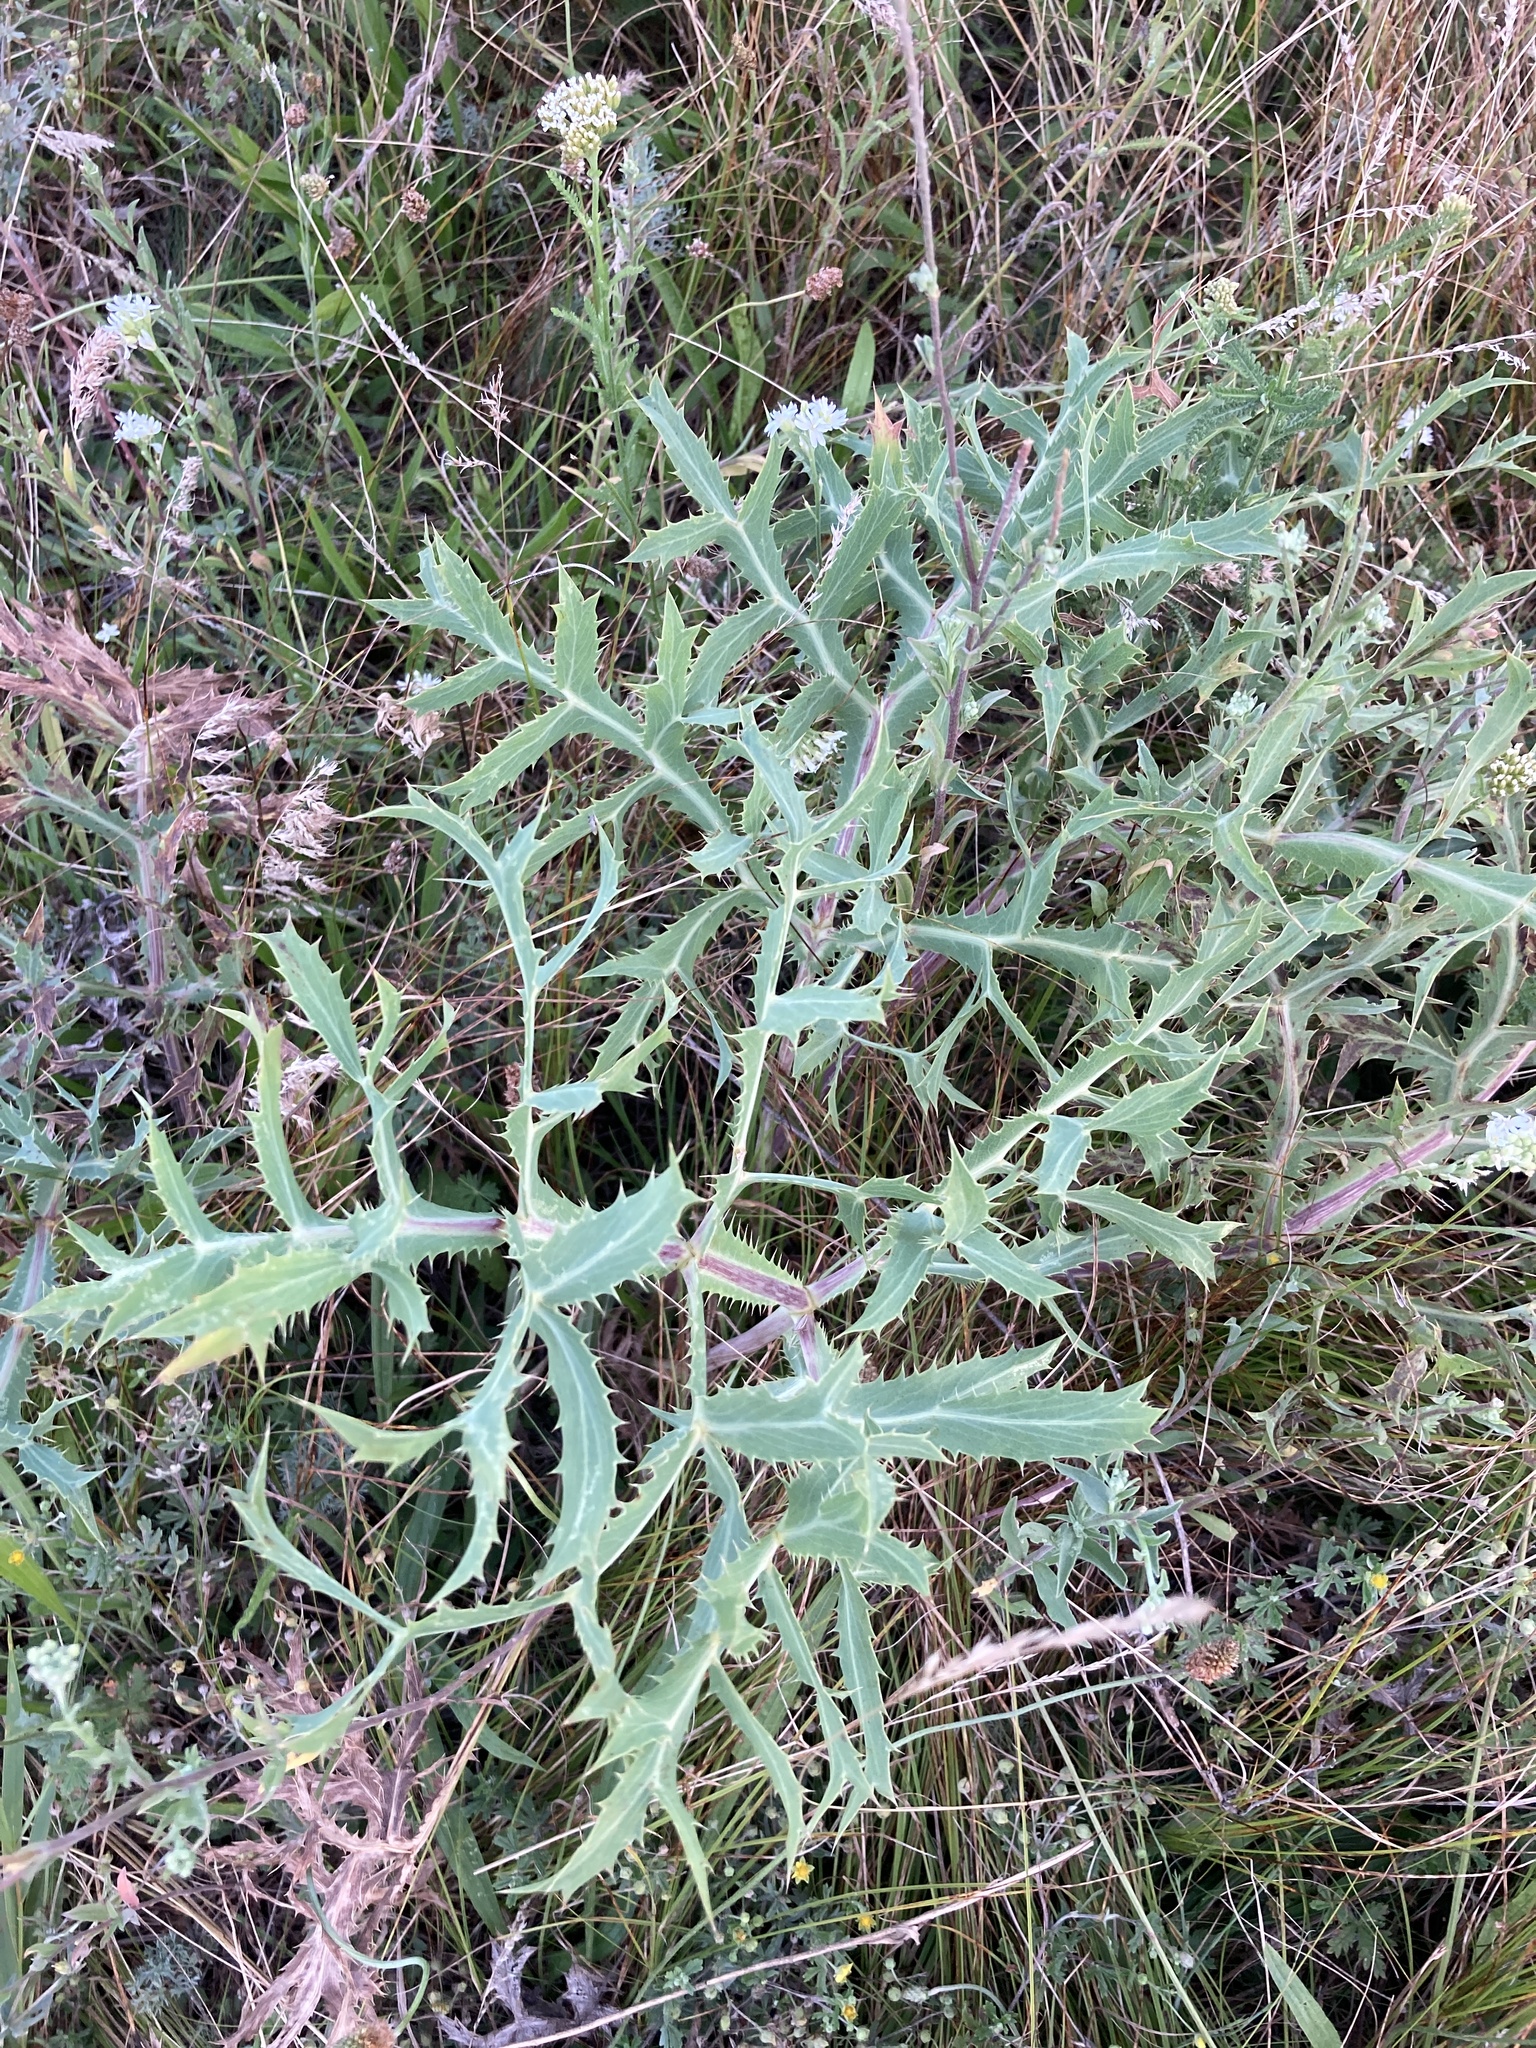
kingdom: Plantae
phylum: Tracheophyta
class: Magnoliopsida
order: Apiales
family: Apiaceae
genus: Eryngium
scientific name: Eryngium campestre
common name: Field eryngo
